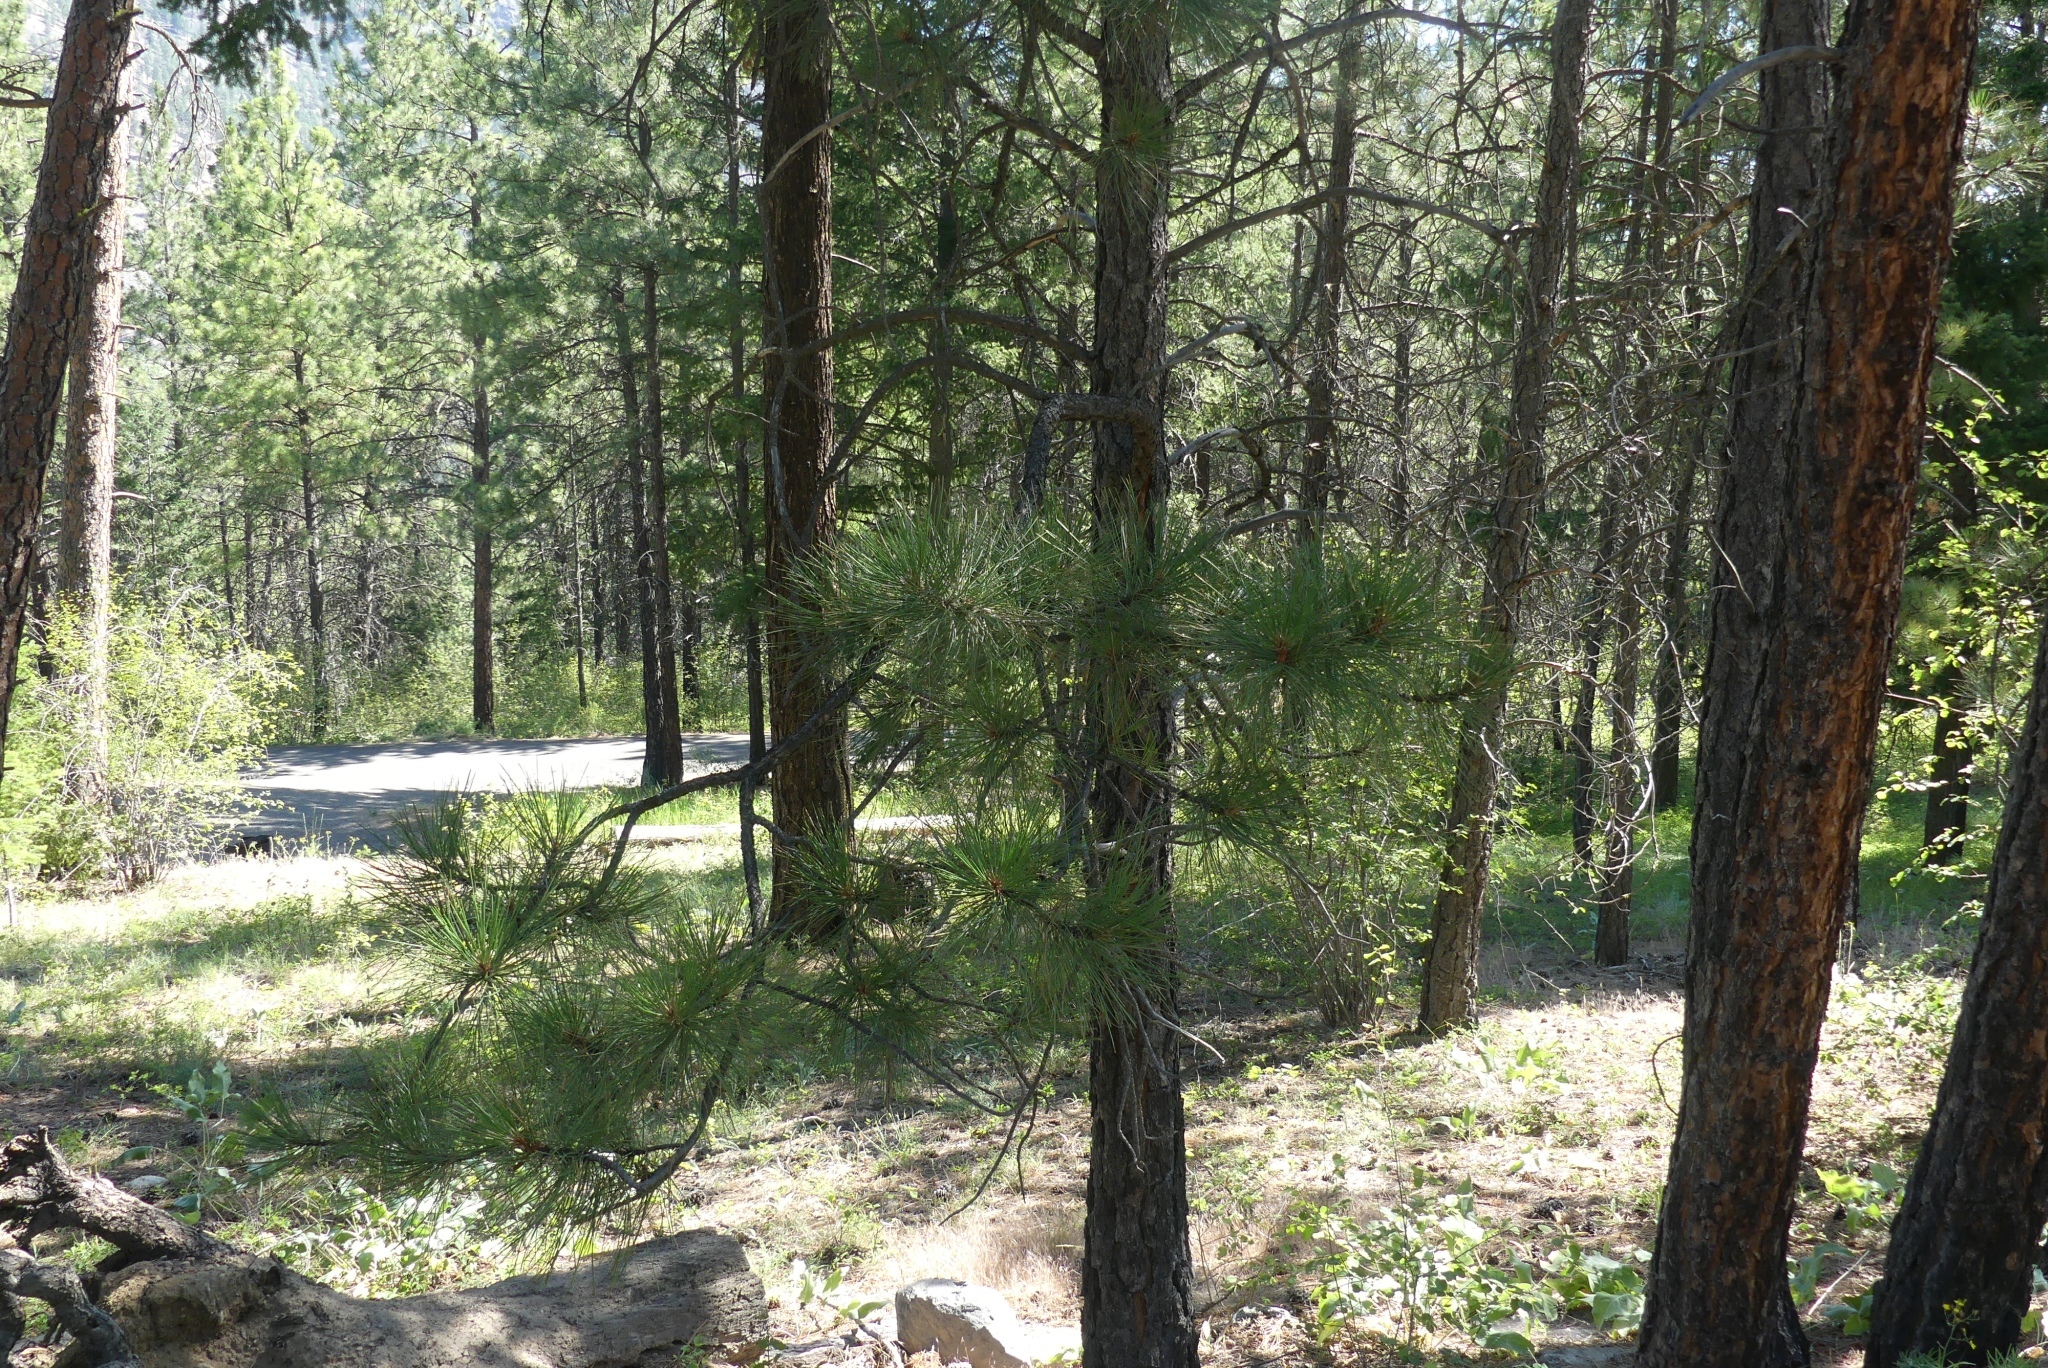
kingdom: Plantae
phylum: Tracheophyta
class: Pinopsida
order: Pinales
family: Pinaceae
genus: Pinus
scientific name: Pinus ponderosa
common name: Western yellow-pine
